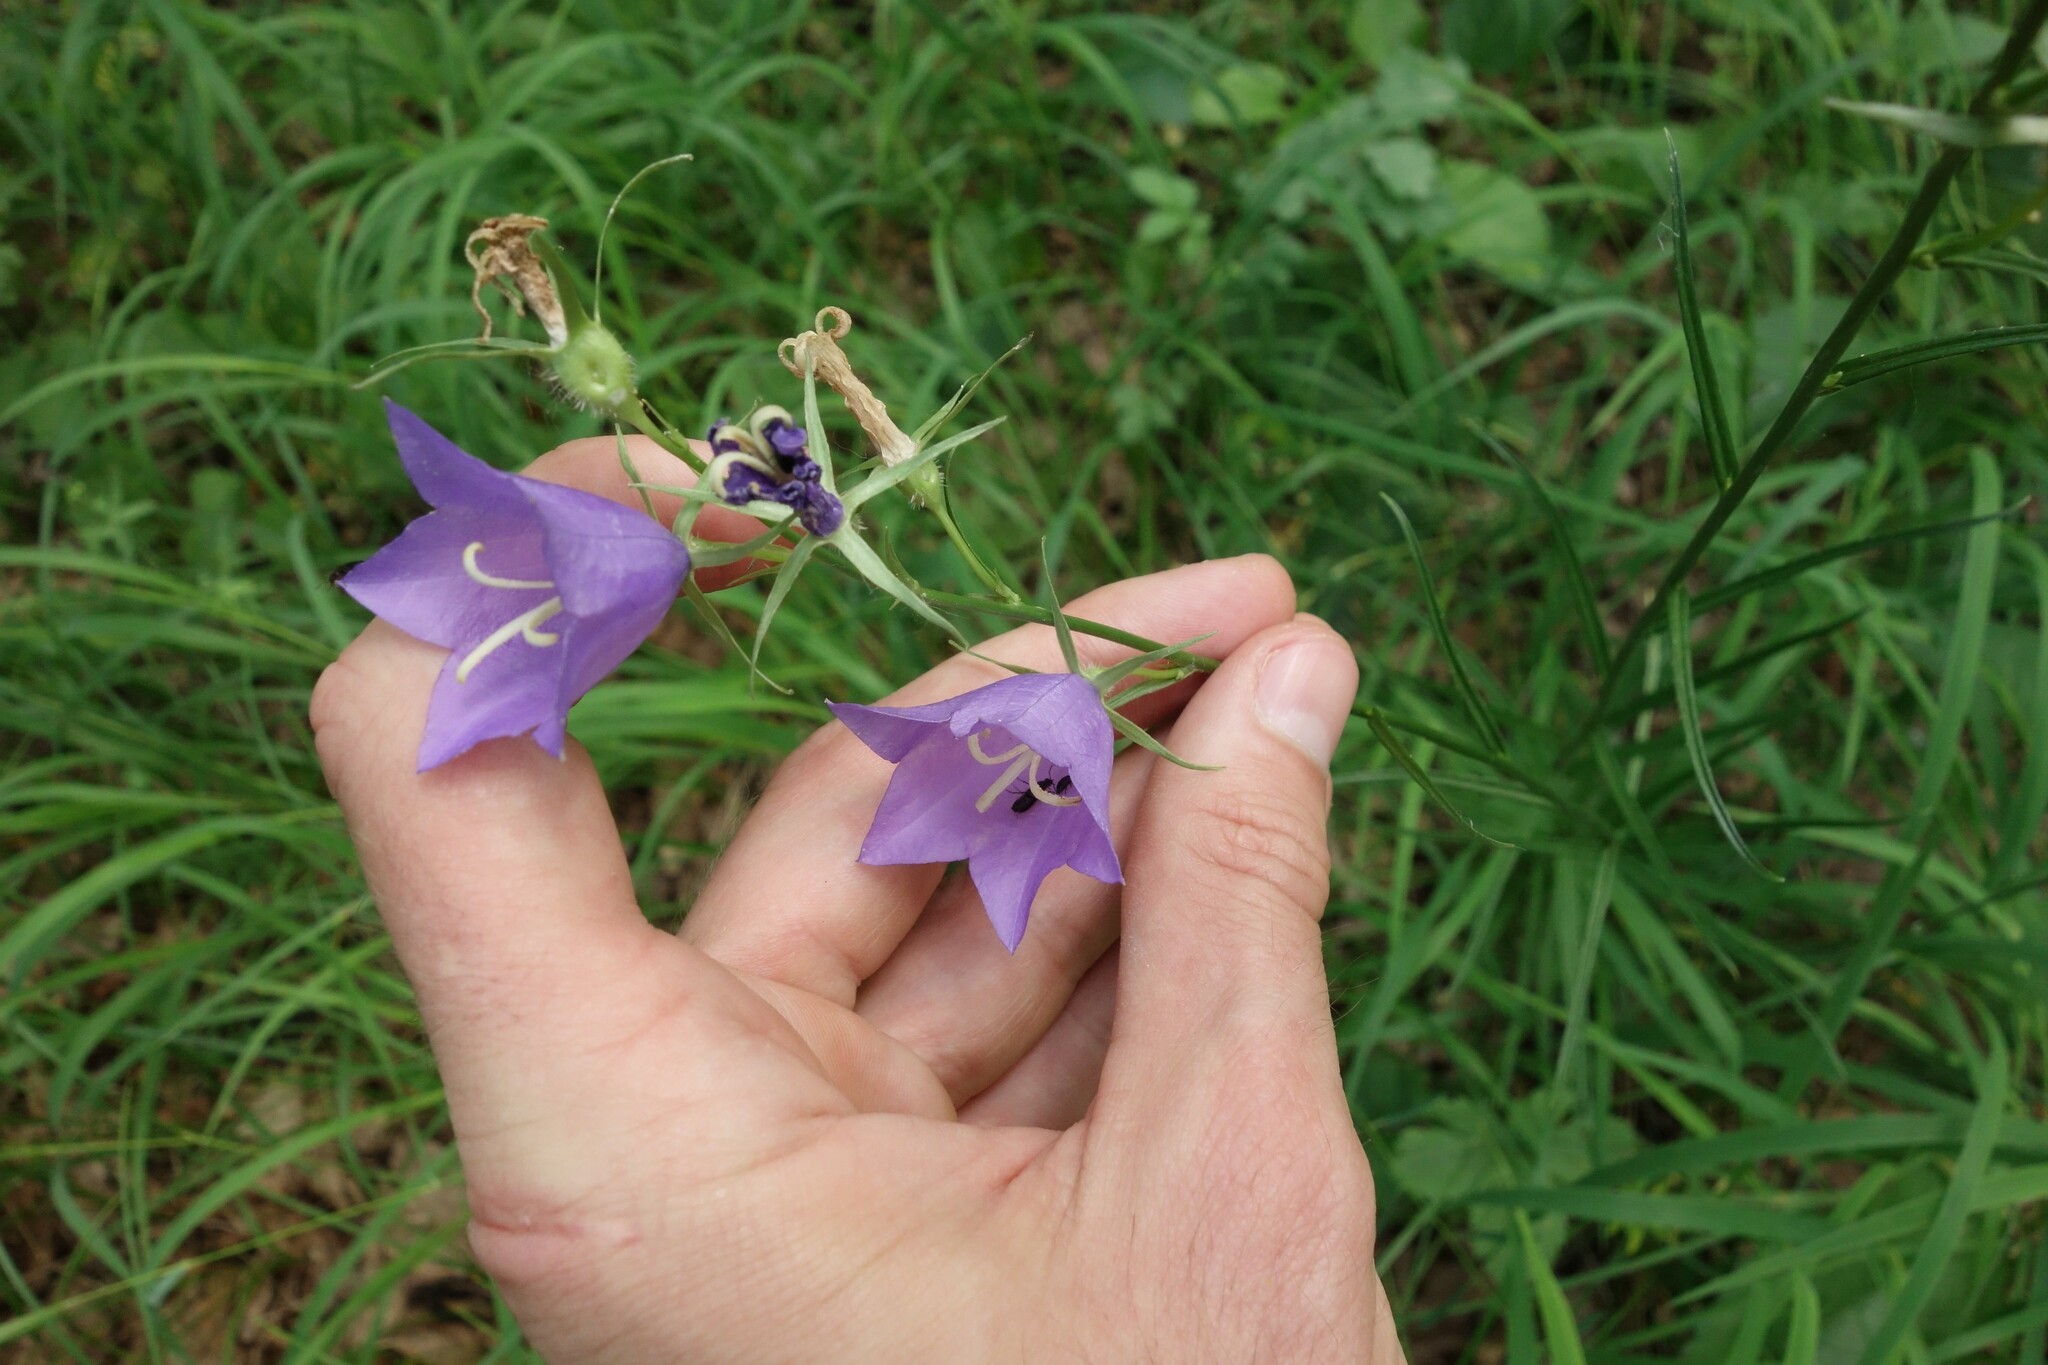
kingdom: Plantae
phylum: Tracheophyta
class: Magnoliopsida
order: Asterales
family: Campanulaceae
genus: Campanula
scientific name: Campanula persicifolia
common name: Peach-leaved bellflower
